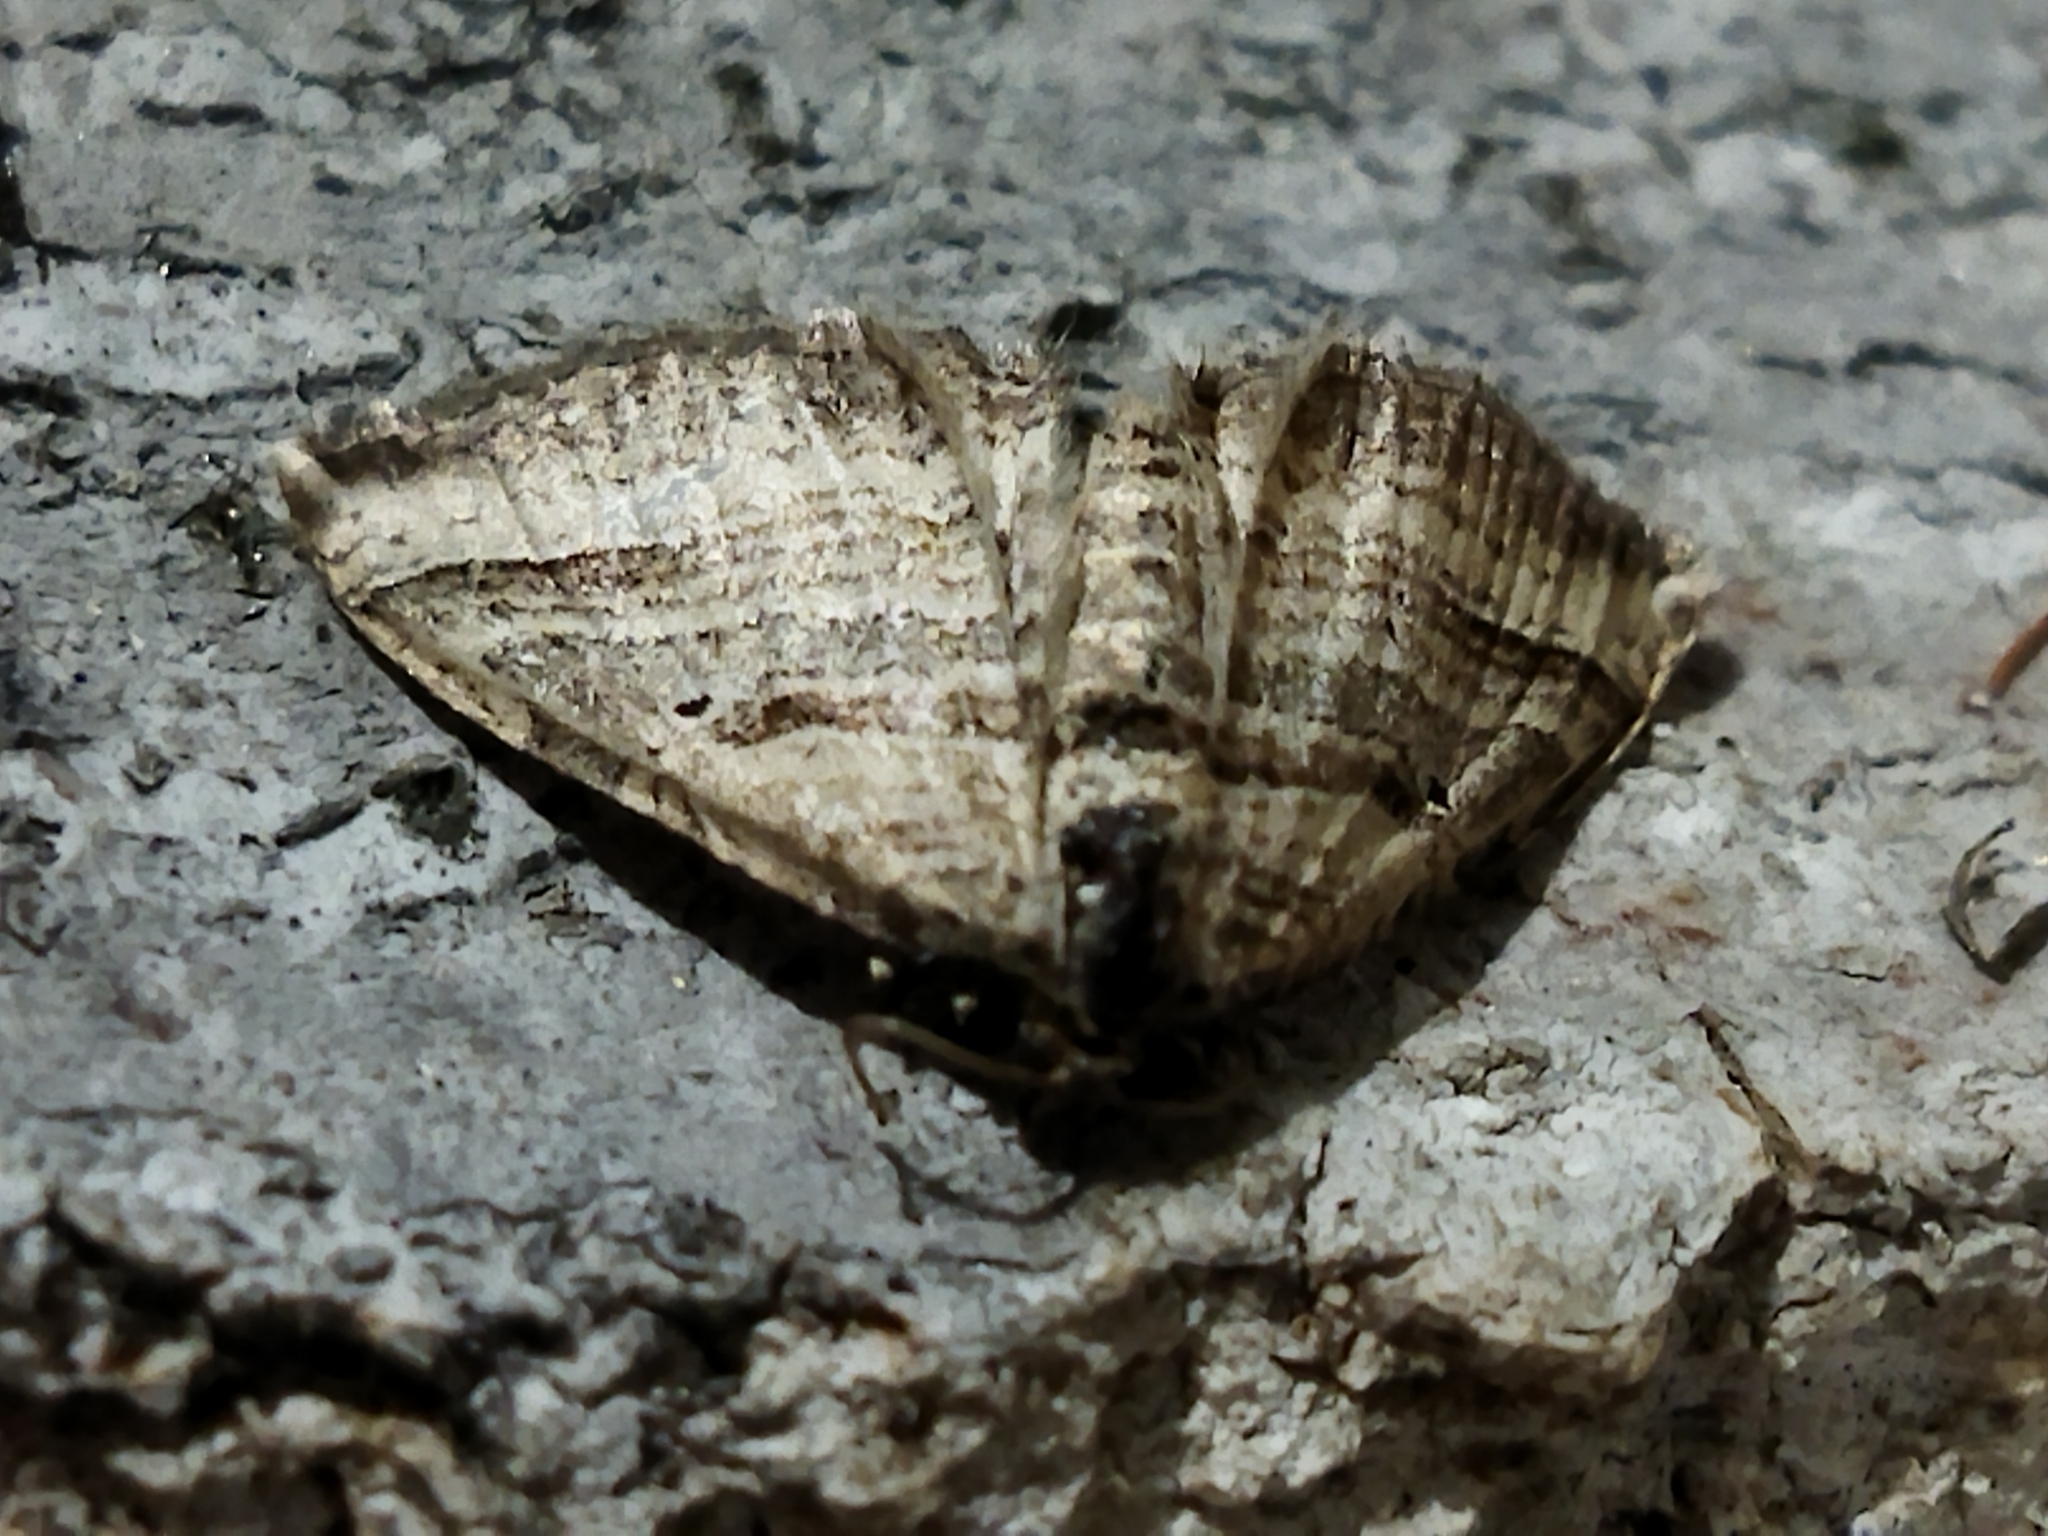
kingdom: Animalia
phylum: Arthropoda
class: Insecta
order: Lepidoptera
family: Geometridae
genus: Costaconvexa
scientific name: Costaconvexa polygrammata
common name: Many-lined
